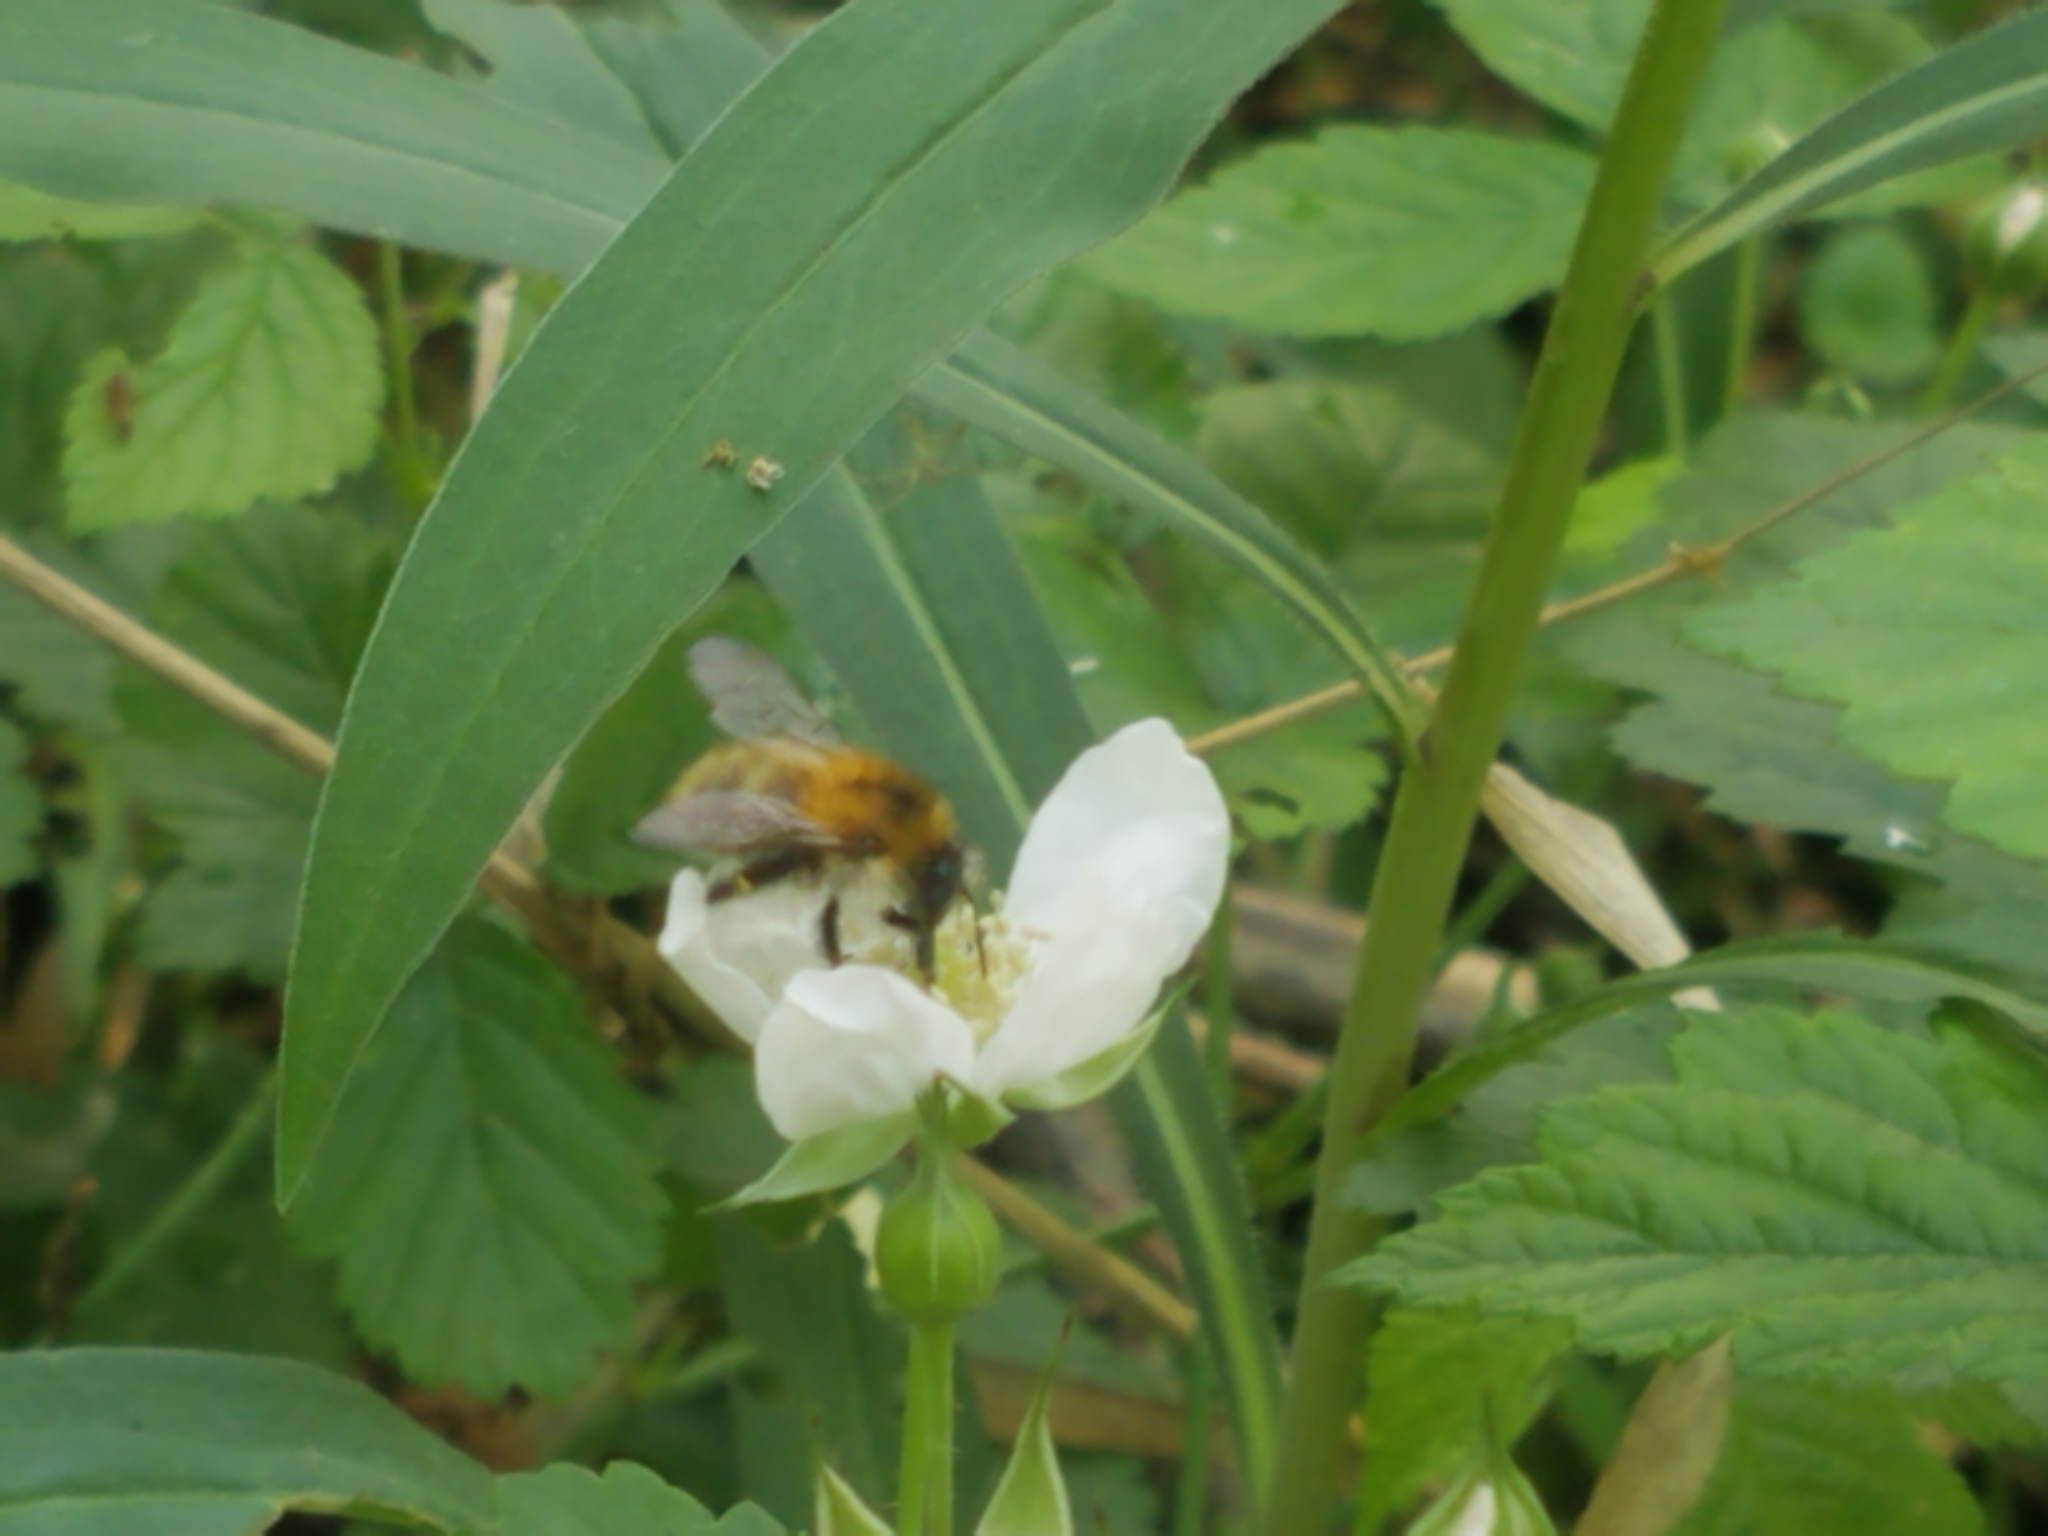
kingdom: Animalia
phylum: Arthropoda
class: Insecta
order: Hymenoptera
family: Apidae
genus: Bombus
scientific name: Bombus pascuorum
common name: Common carder bee
